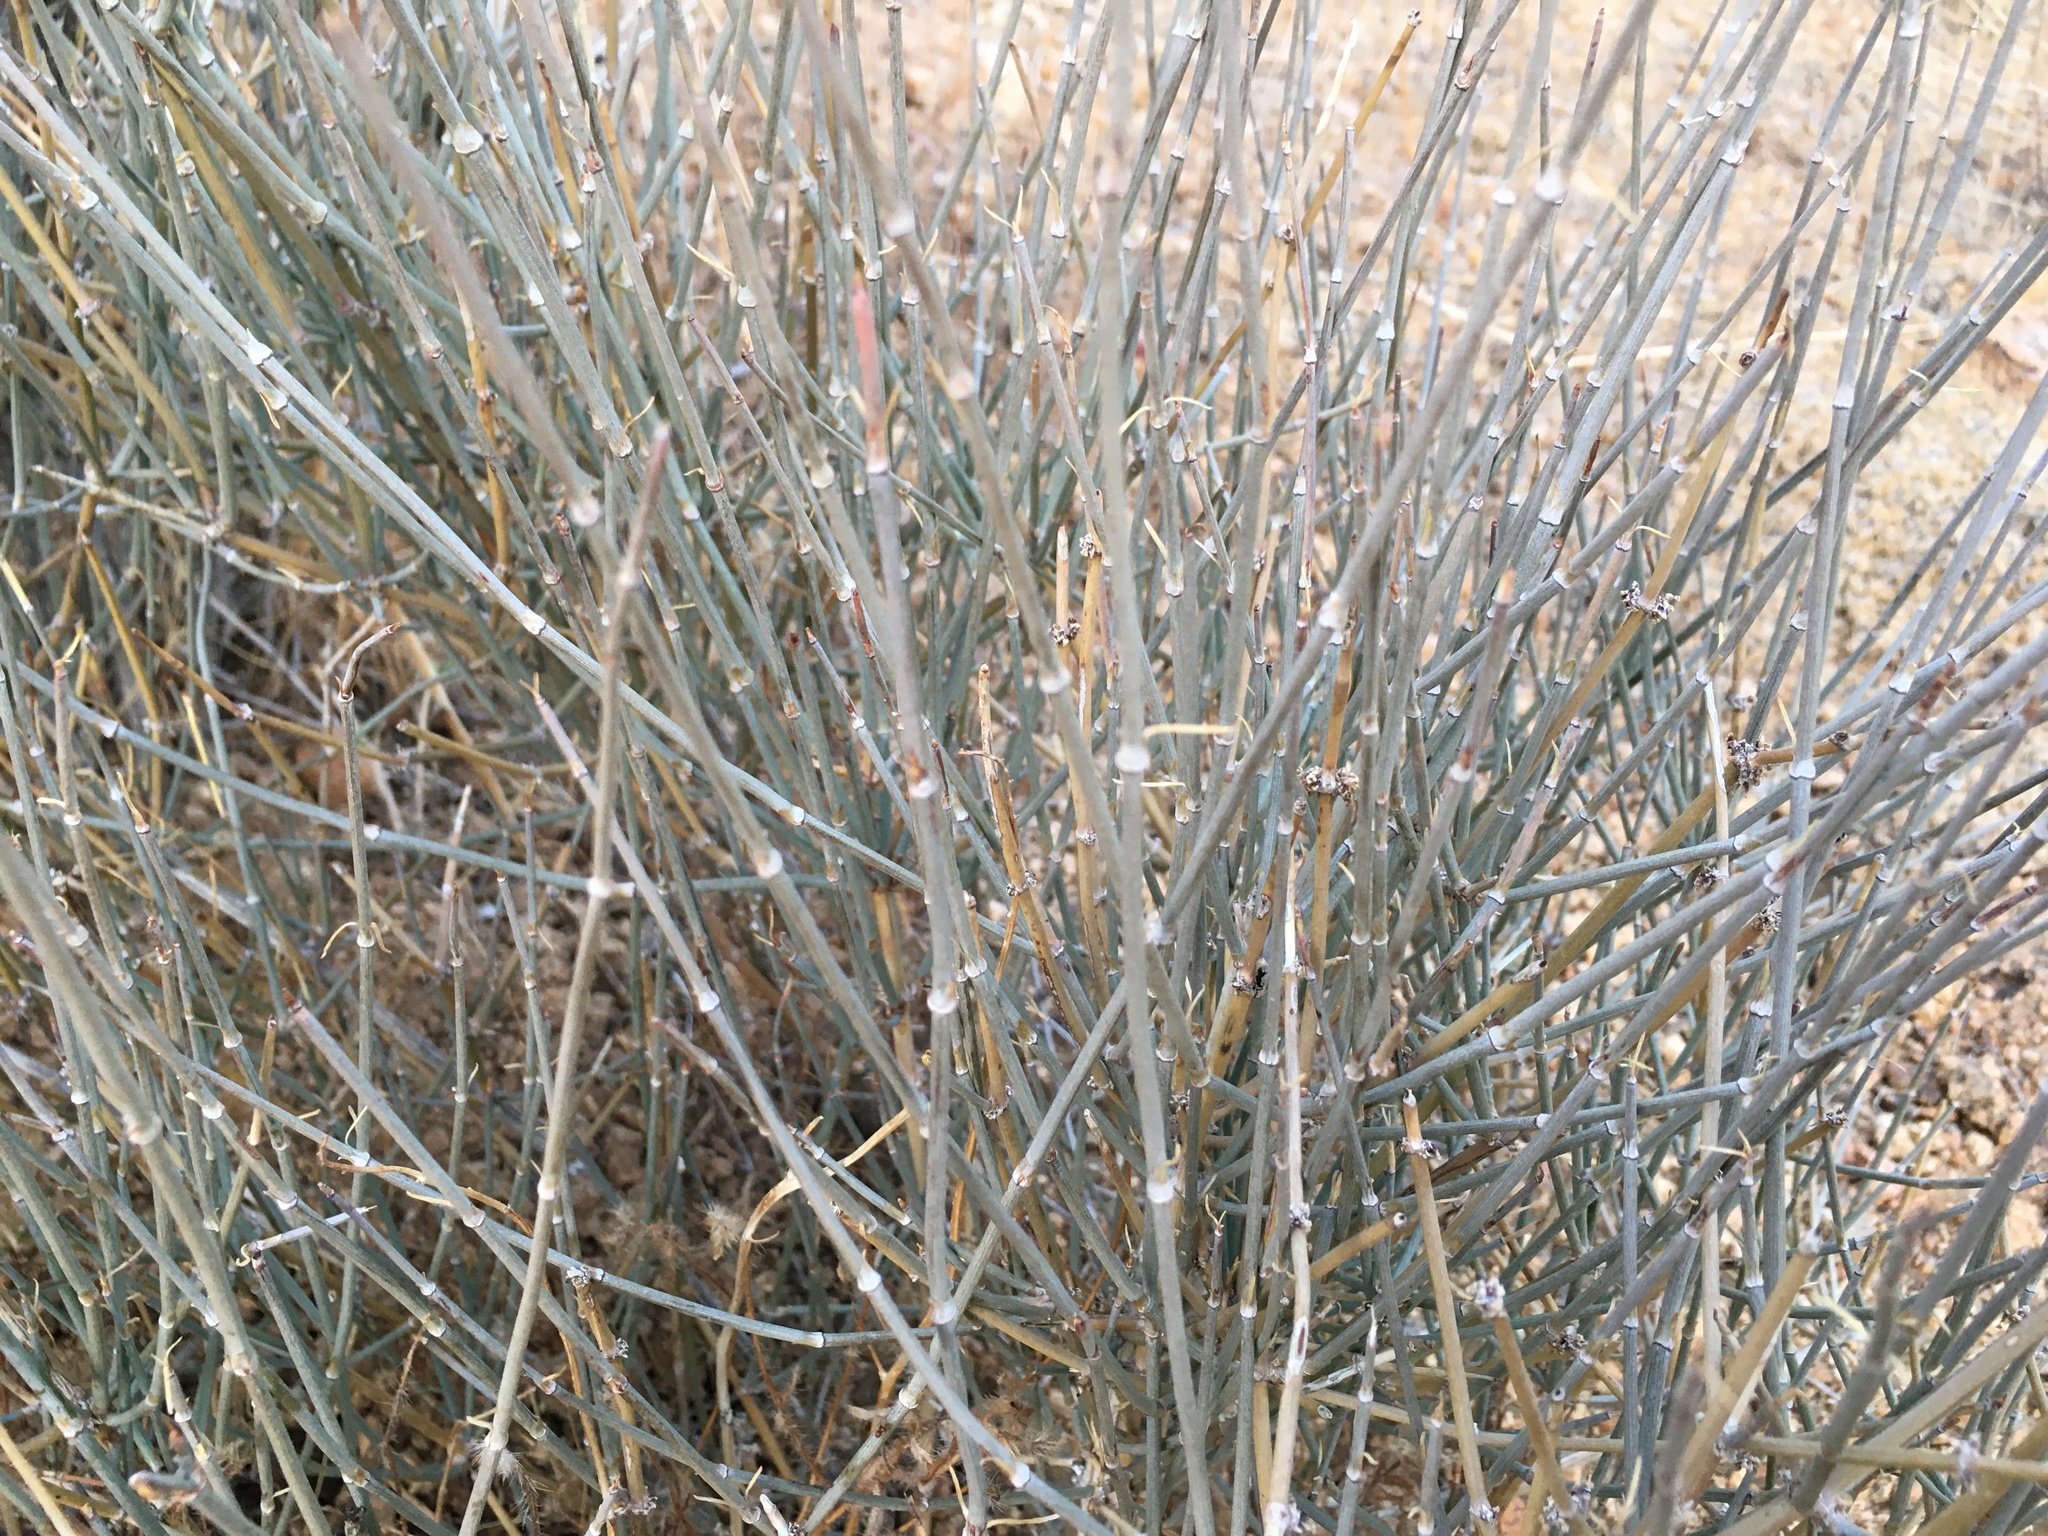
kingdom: Plantae
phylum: Tracheophyta
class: Gnetopsida
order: Ephedrales
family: Ephedraceae
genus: Ephedra
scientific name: Ephedra nevadensis
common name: Gray ephedra
